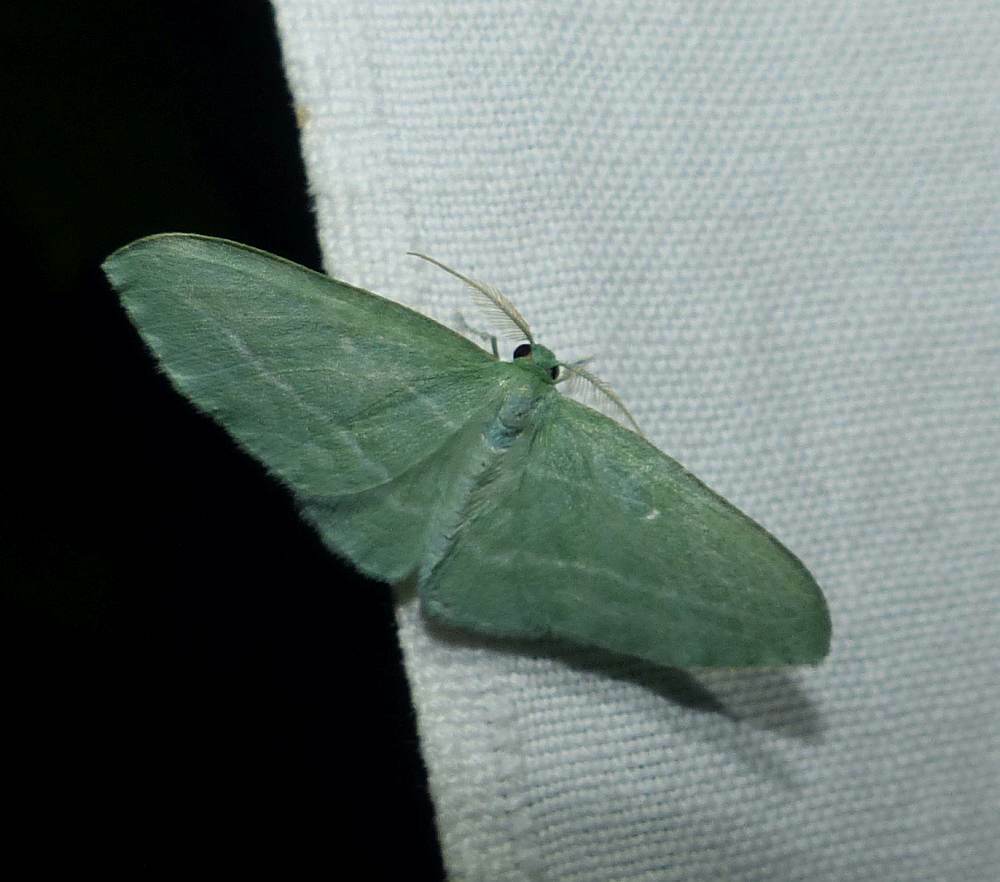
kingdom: Animalia
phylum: Arthropoda
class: Insecta
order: Lepidoptera
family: Geometridae
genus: Dyspteris
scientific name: Dyspteris abortivaria
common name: Bad-wing
